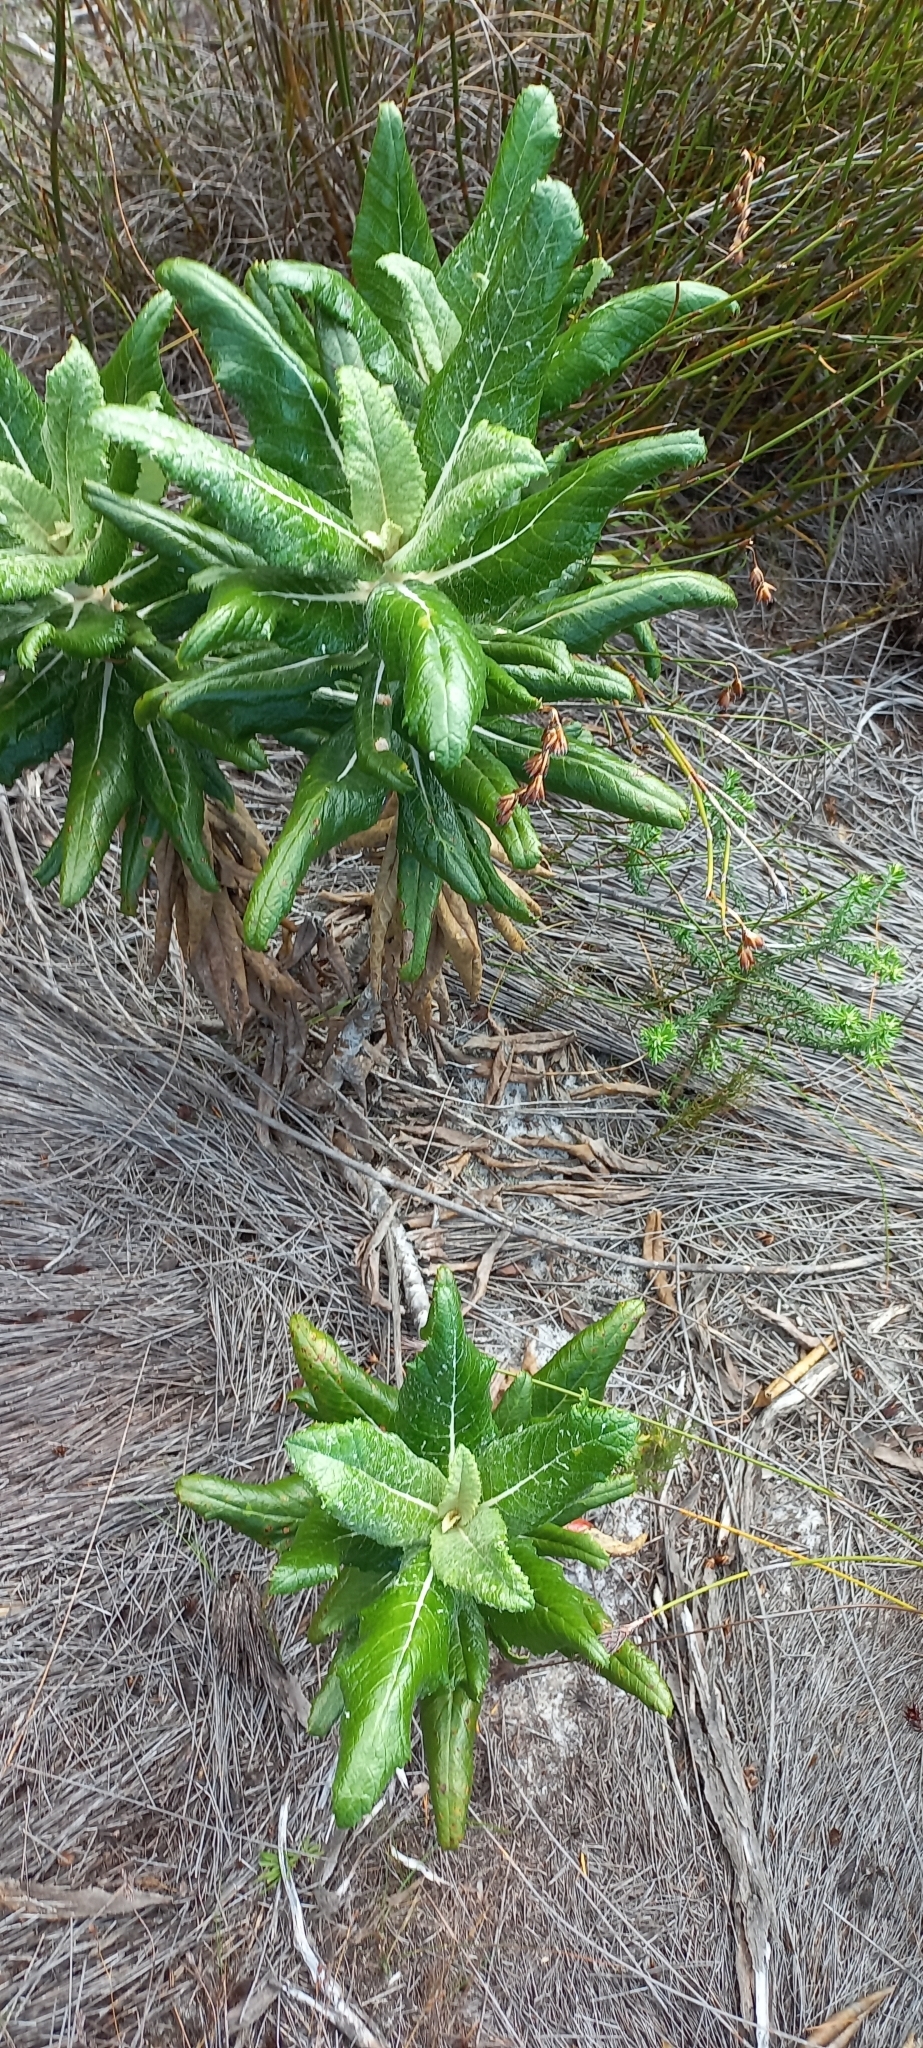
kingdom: Plantae
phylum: Tracheophyta
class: Magnoliopsida
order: Apiales
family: Apiaceae
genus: Hermas
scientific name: Hermas villosa
